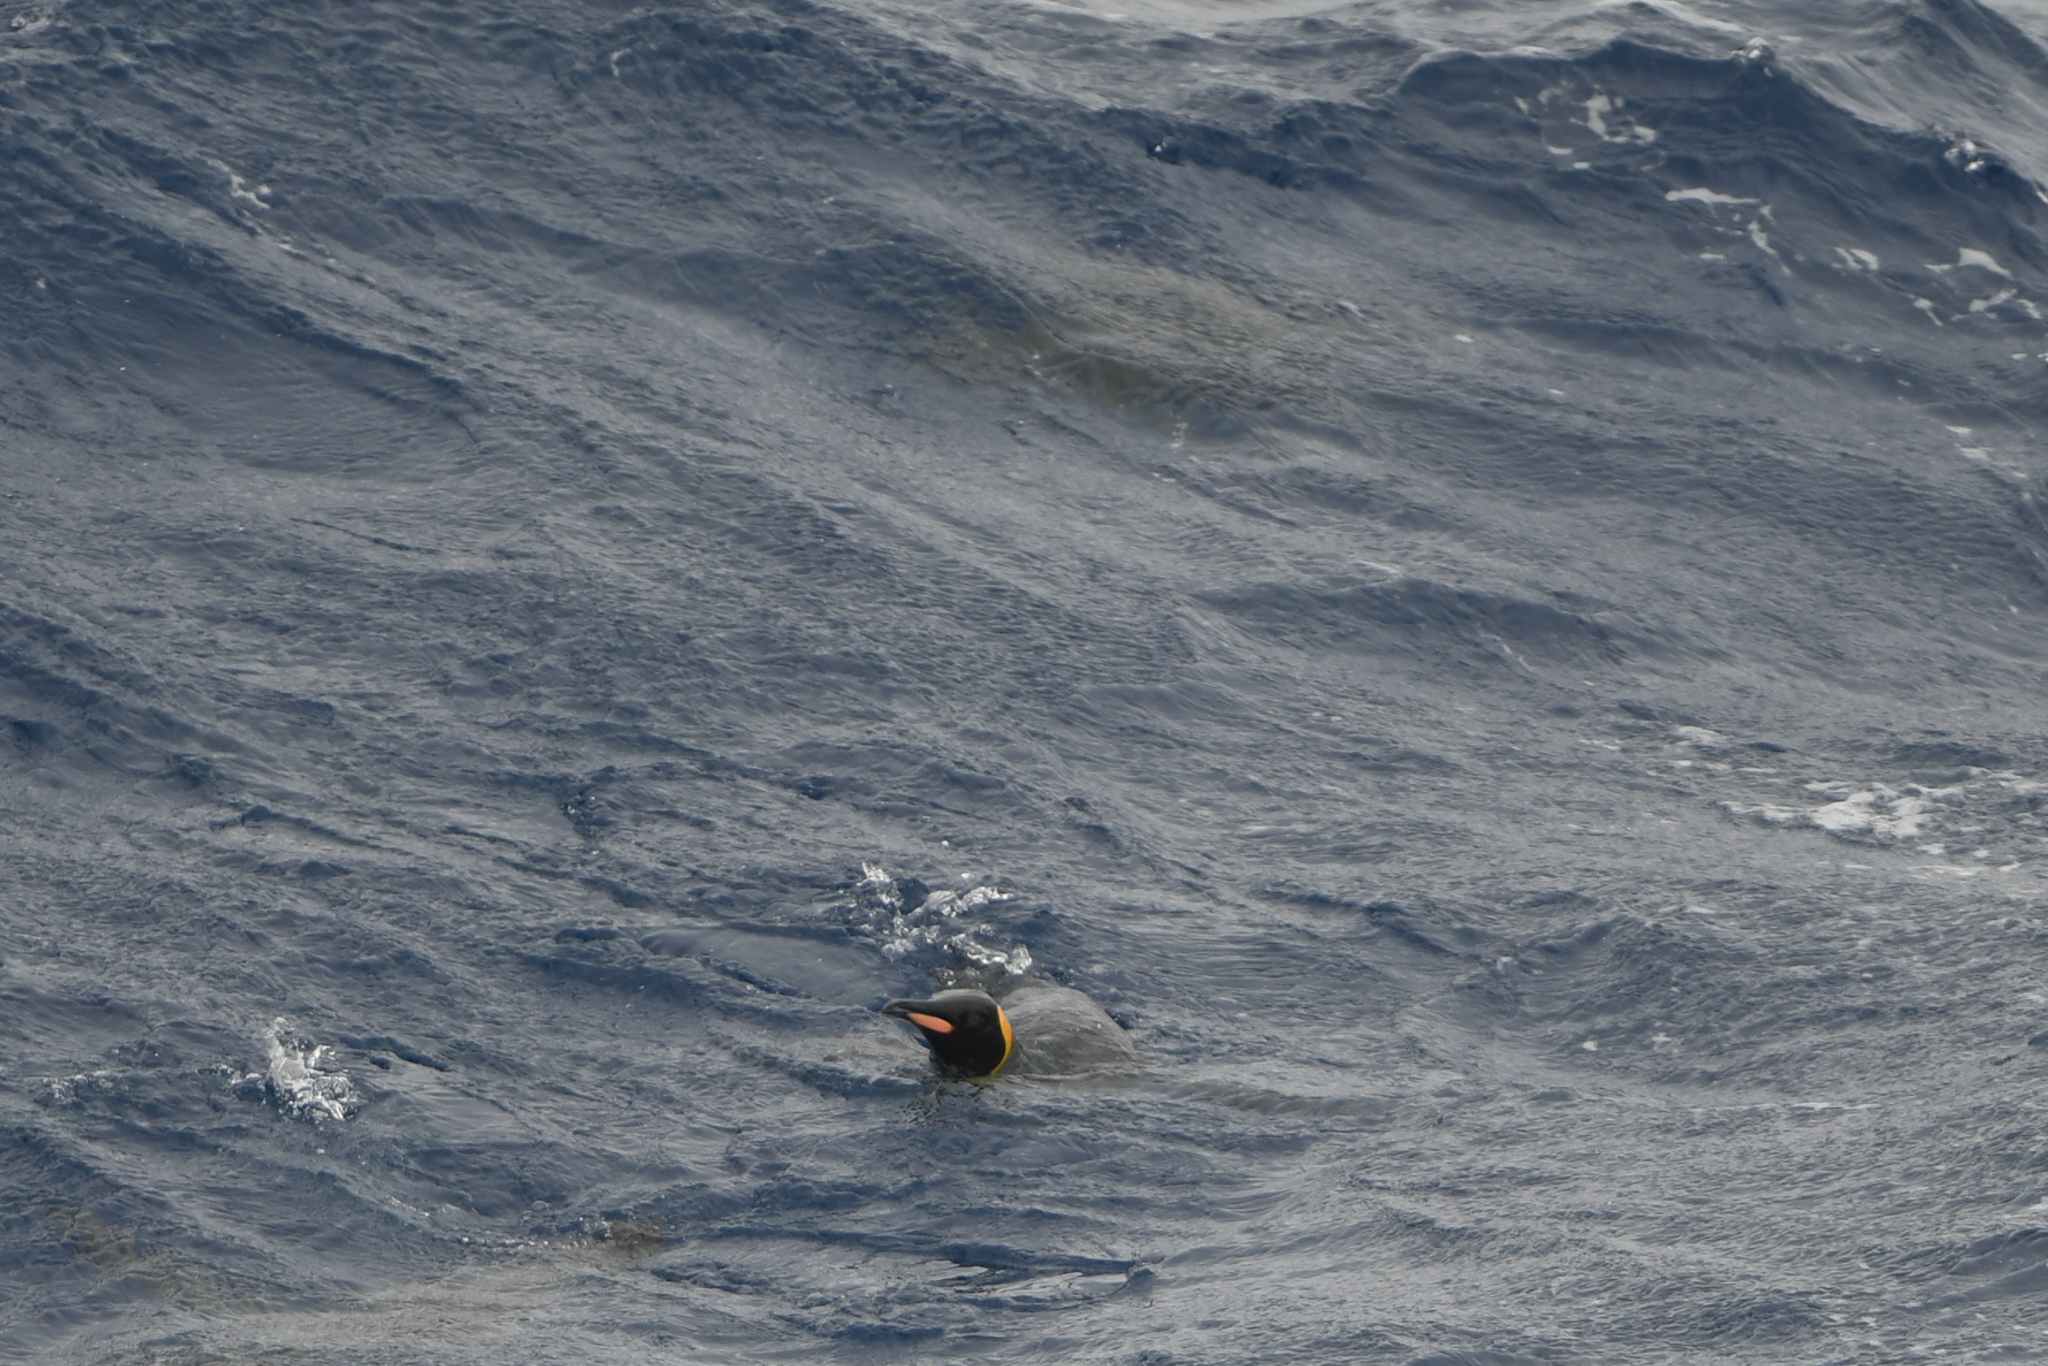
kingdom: Animalia
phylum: Chordata
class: Aves
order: Sphenisciformes
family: Spheniscidae
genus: Aptenodytes
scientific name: Aptenodytes patagonicus
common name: King penguin
